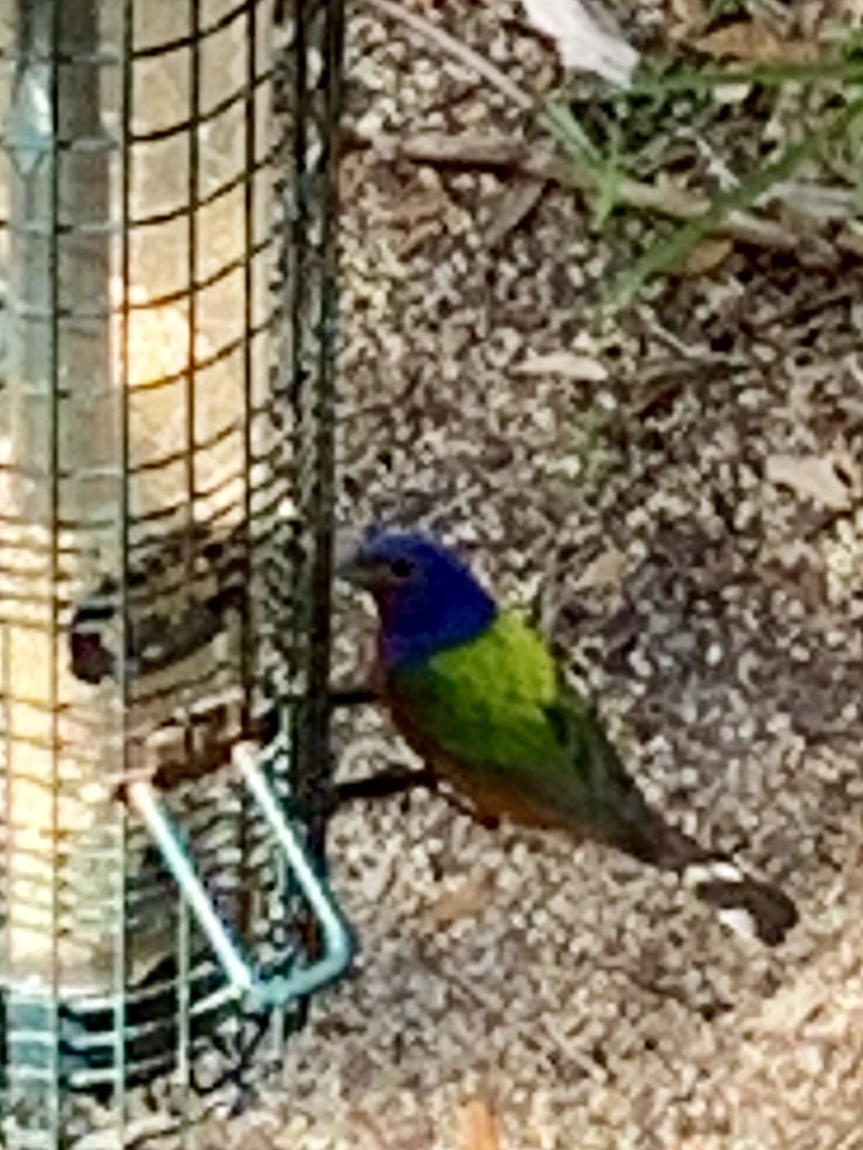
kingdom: Animalia
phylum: Chordata
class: Aves
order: Passeriformes
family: Cardinalidae
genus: Passerina
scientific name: Passerina ciris
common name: Painted bunting
